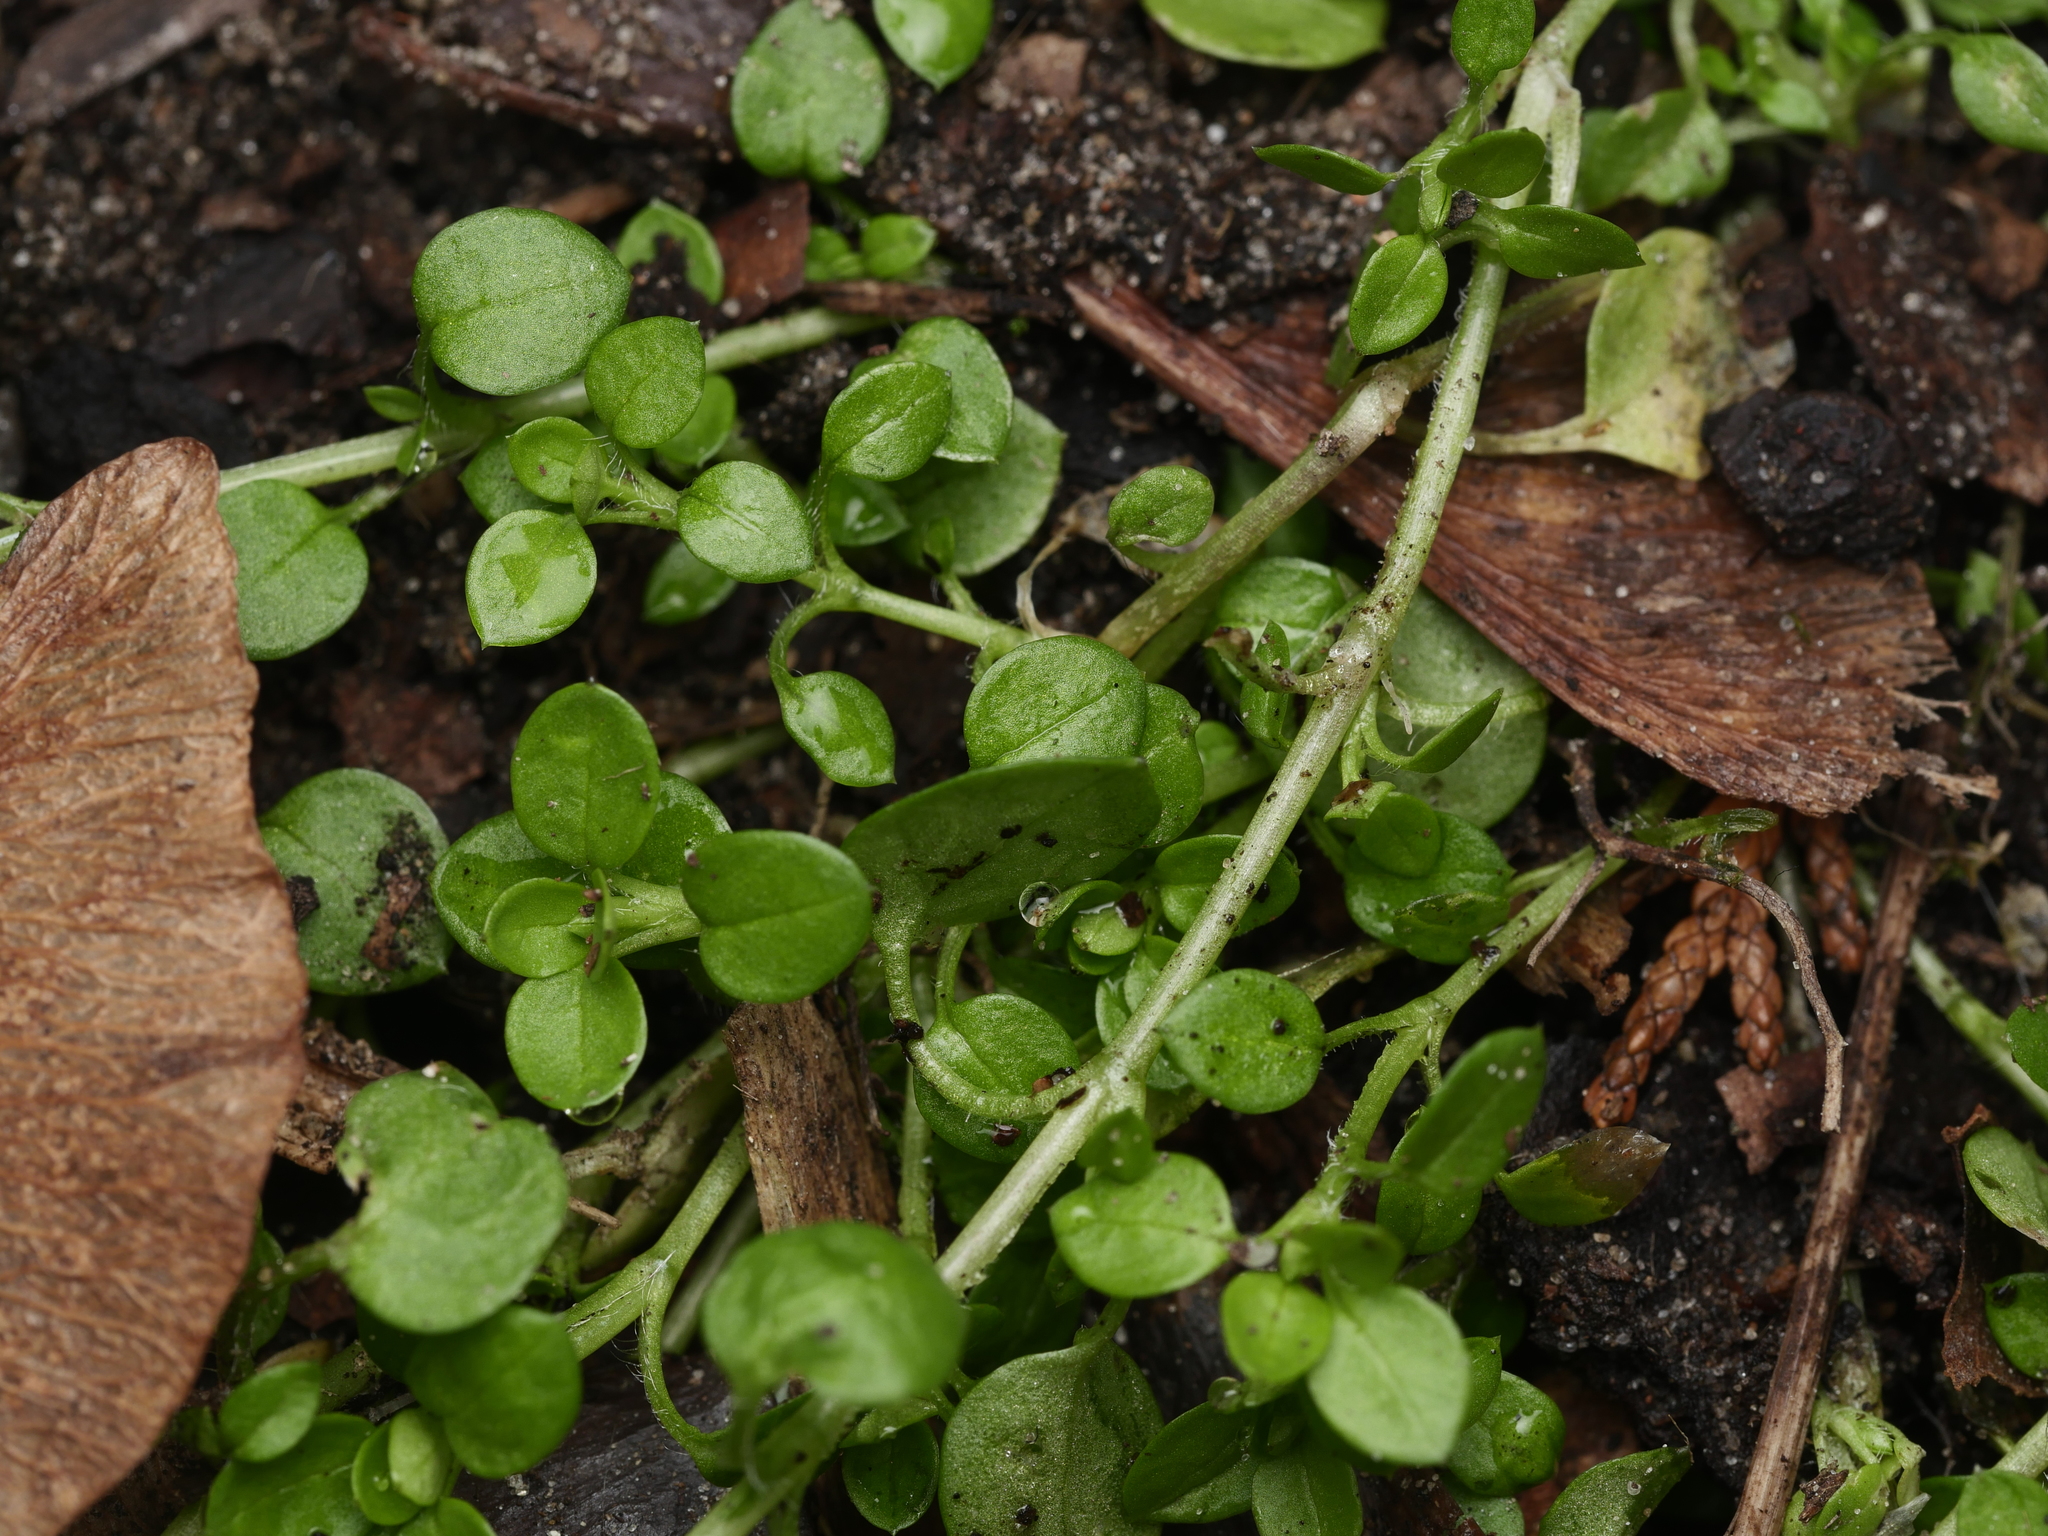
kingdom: Plantae
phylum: Tracheophyta
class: Magnoliopsida
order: Caryophyllales
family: Caryophyllaceae
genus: Stellaria
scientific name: Stellaria media
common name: Common chickweed
